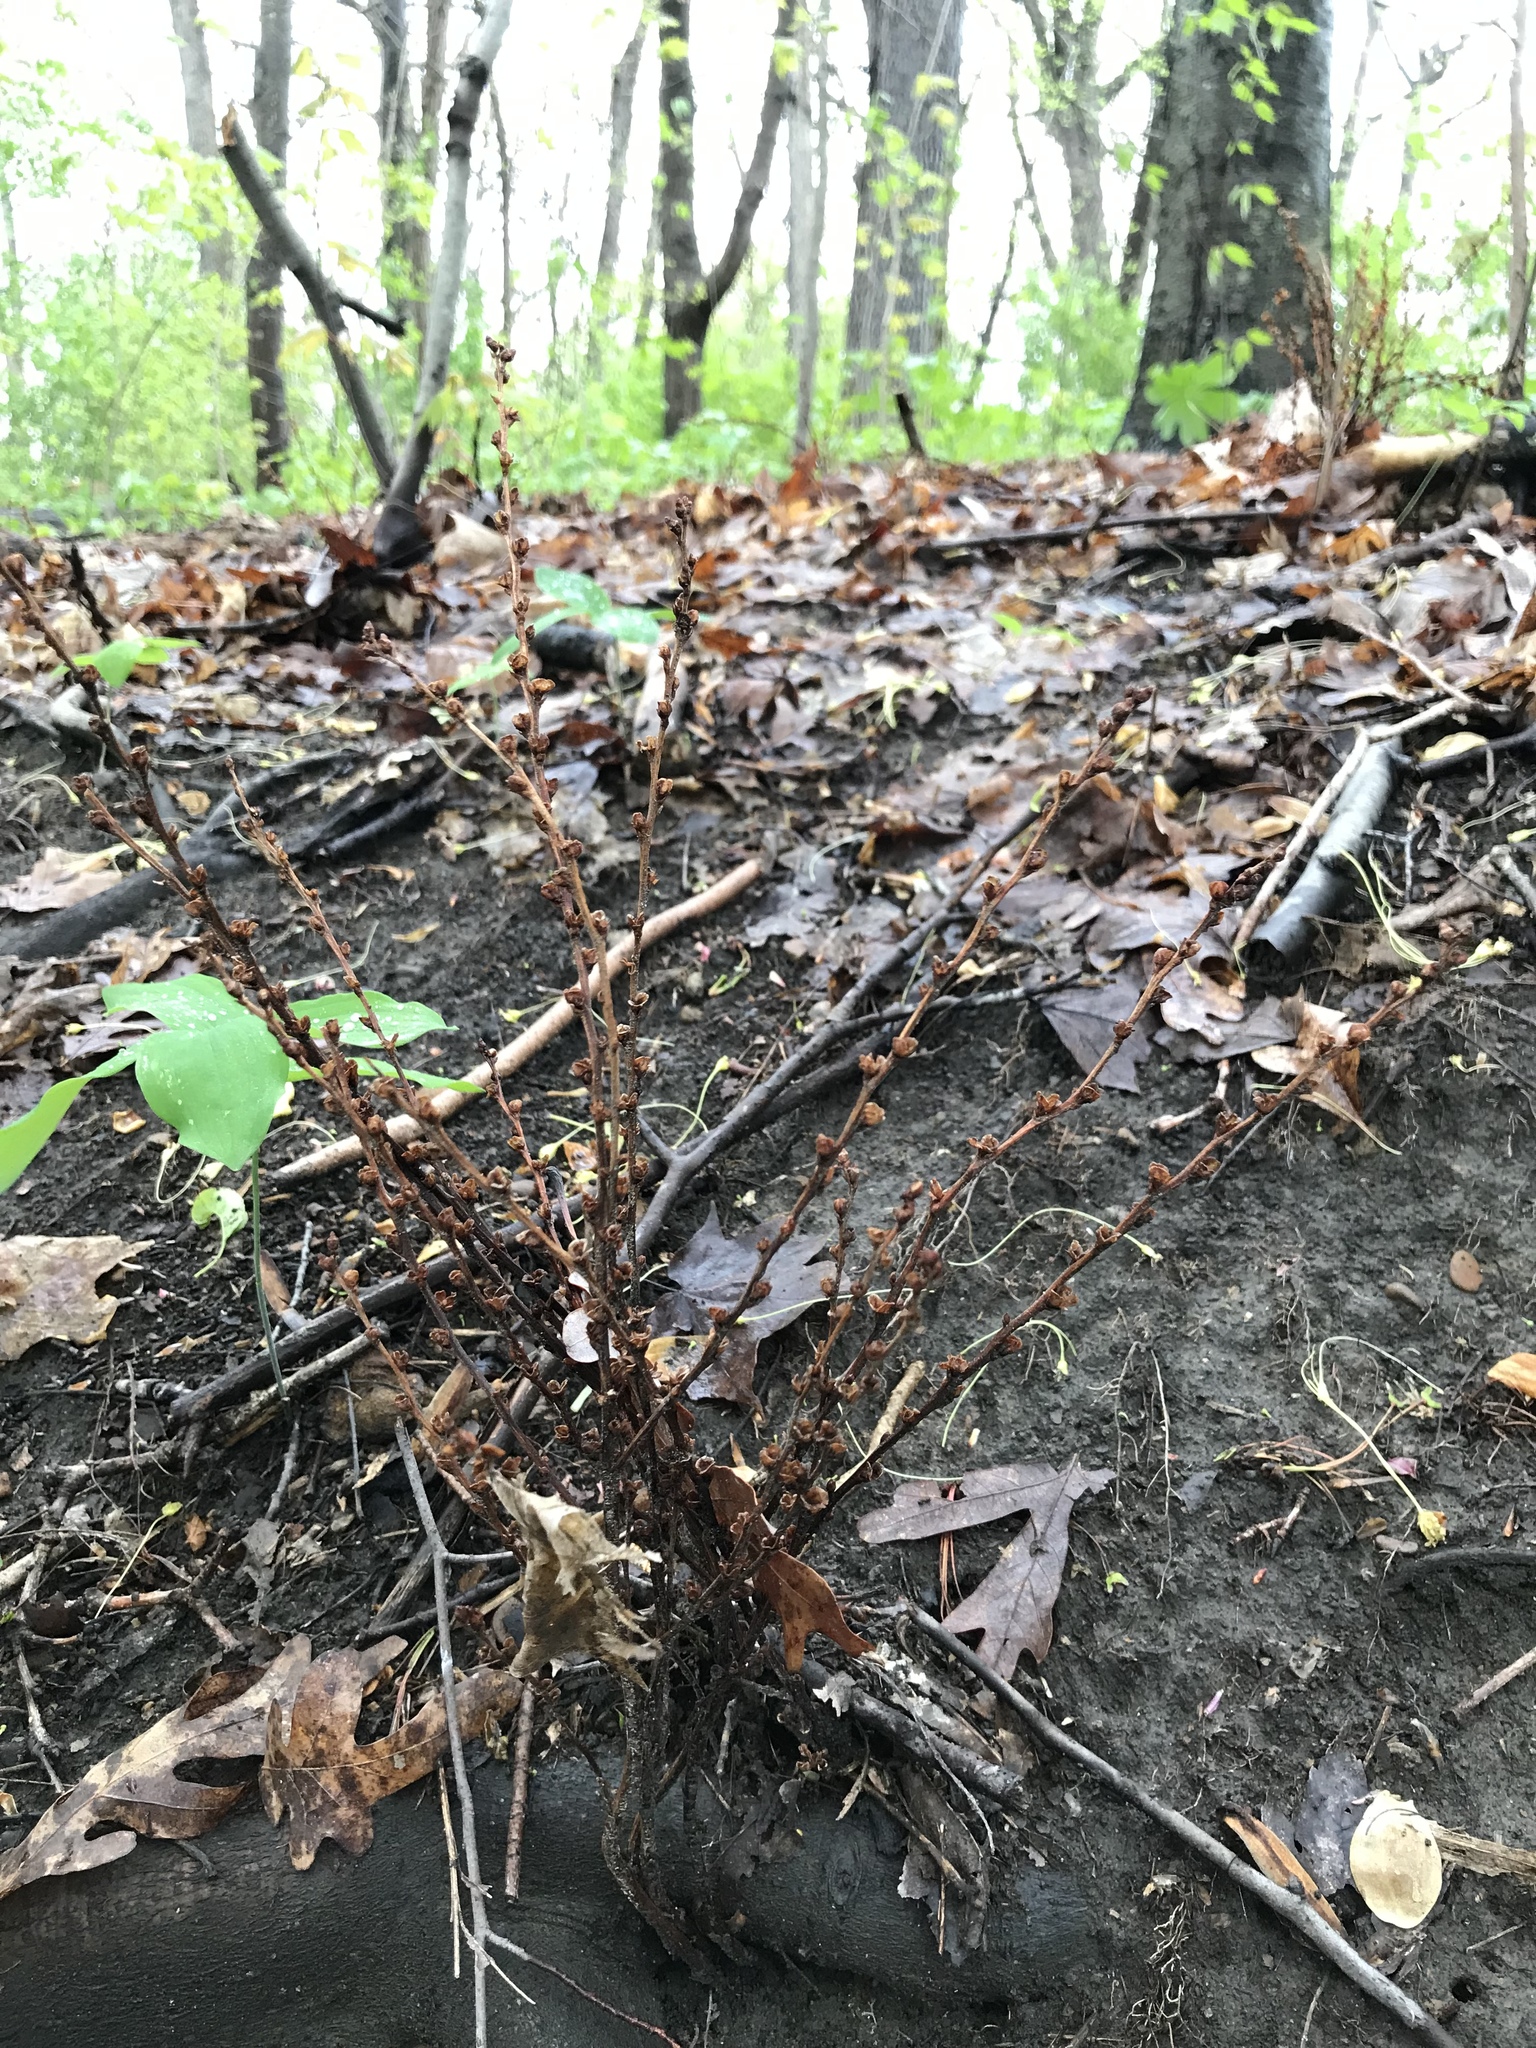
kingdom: Plantae
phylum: Tracheophyta
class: Magnoliopsida
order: Lamiales
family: Orobanchaceae
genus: Epifagus
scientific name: Epifagus virginiana
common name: Beechdrops
